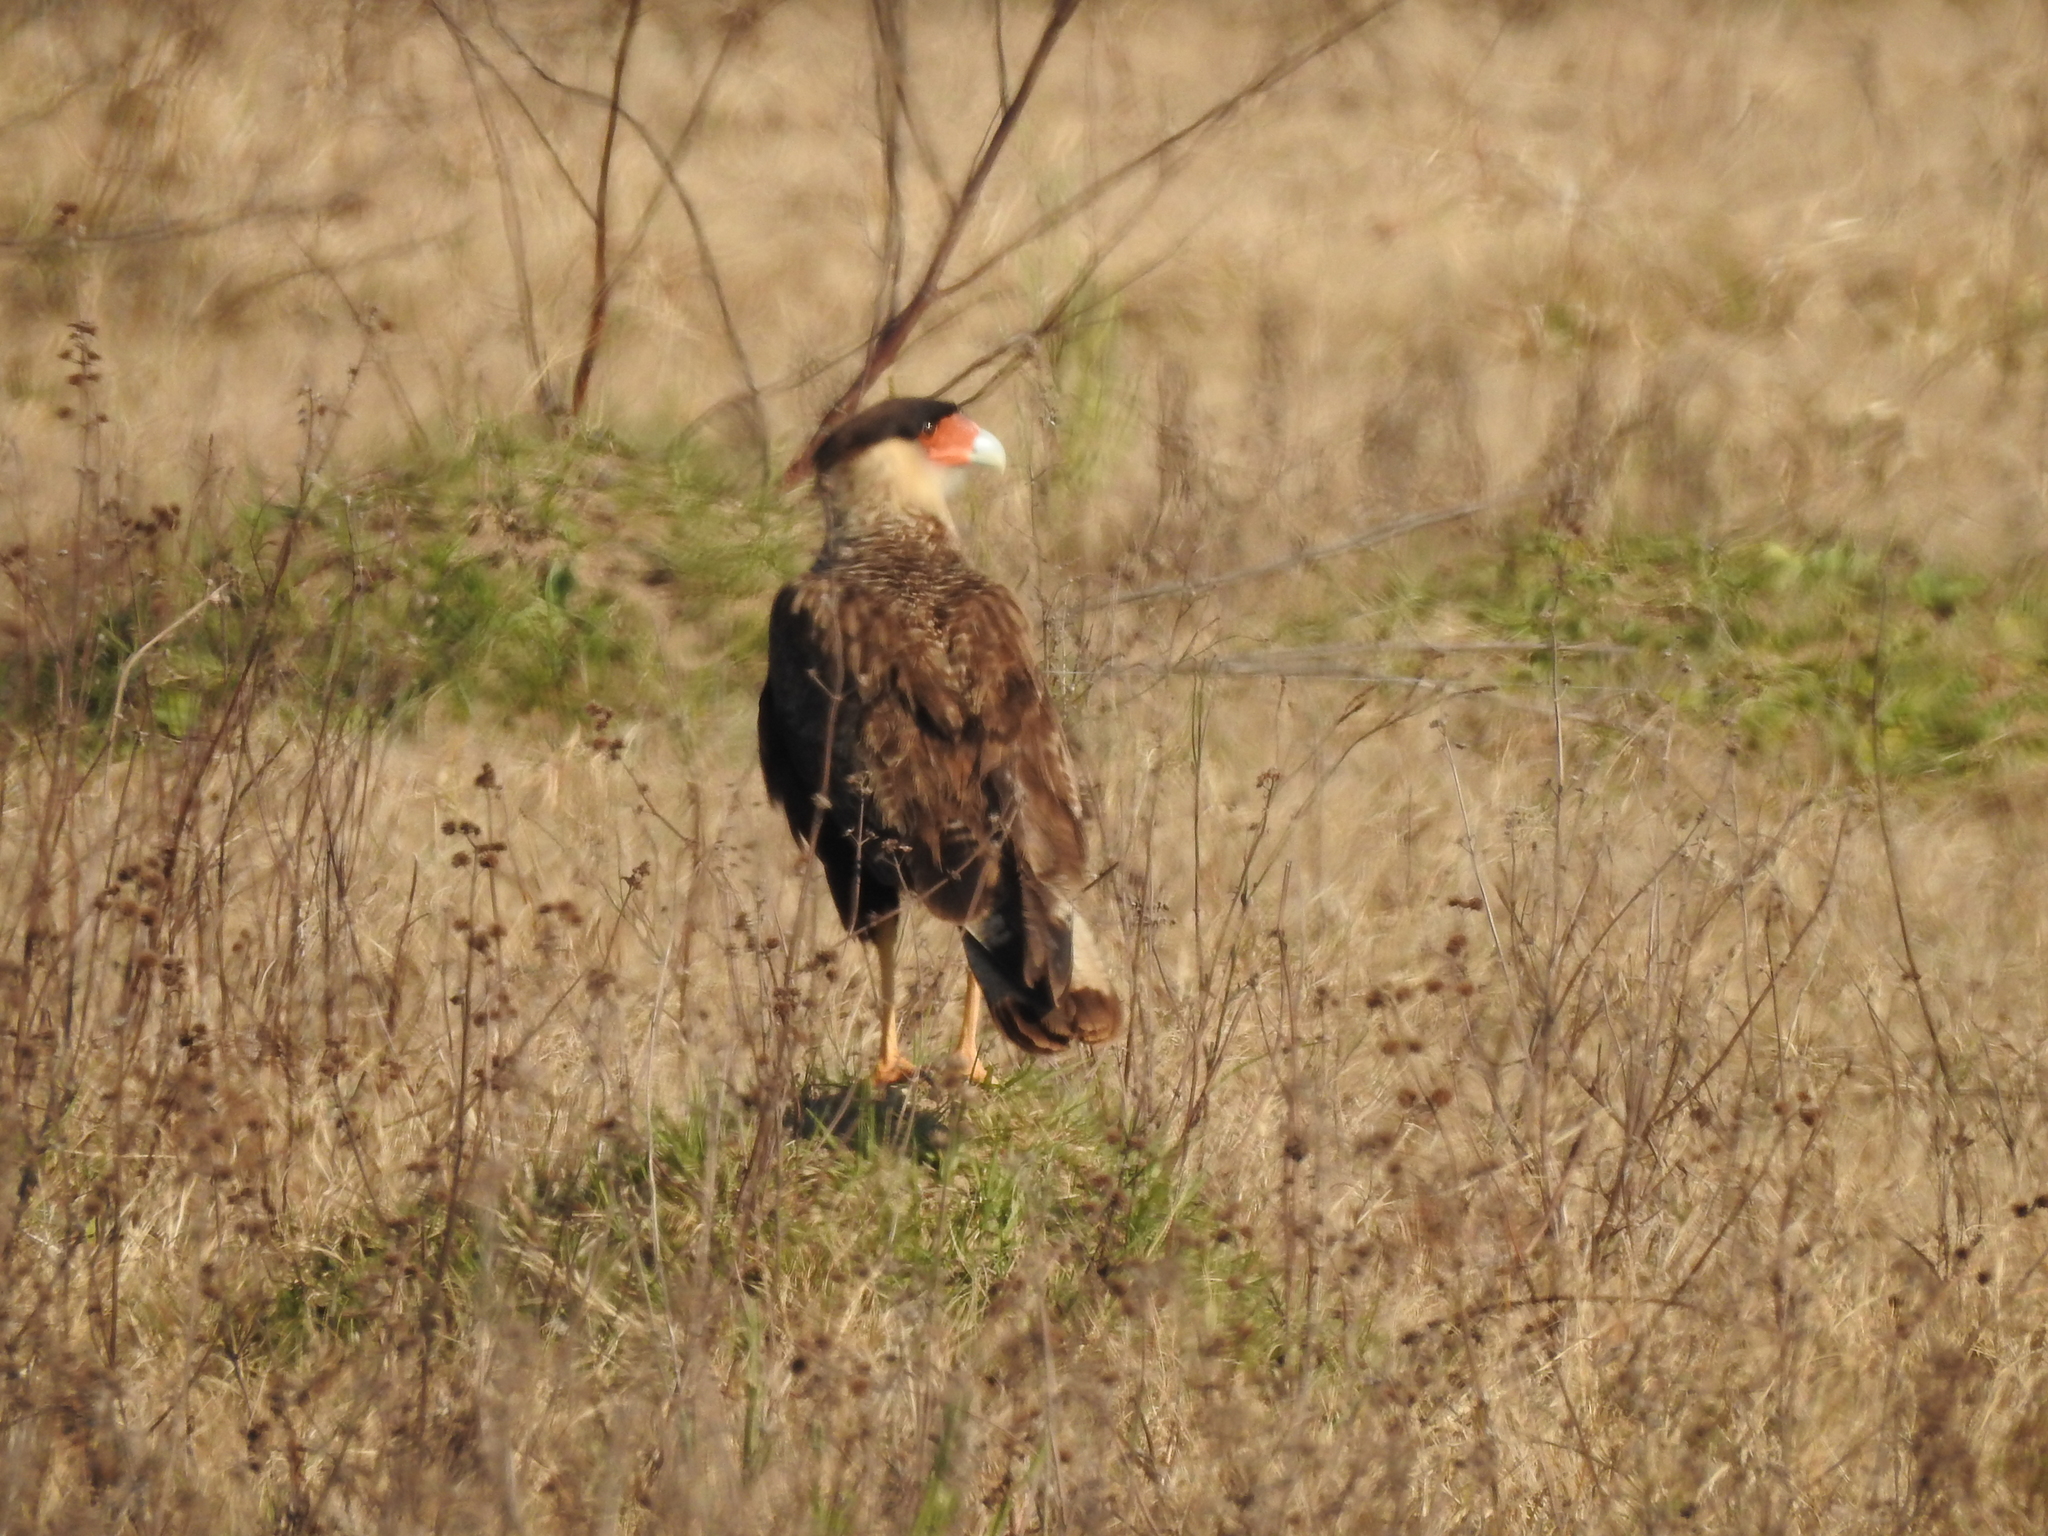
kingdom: Animalia
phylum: Chordata
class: Aves
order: Falconiformes
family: Falconidae
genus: Caracara
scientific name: Caracara plancus
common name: Southern caracara
